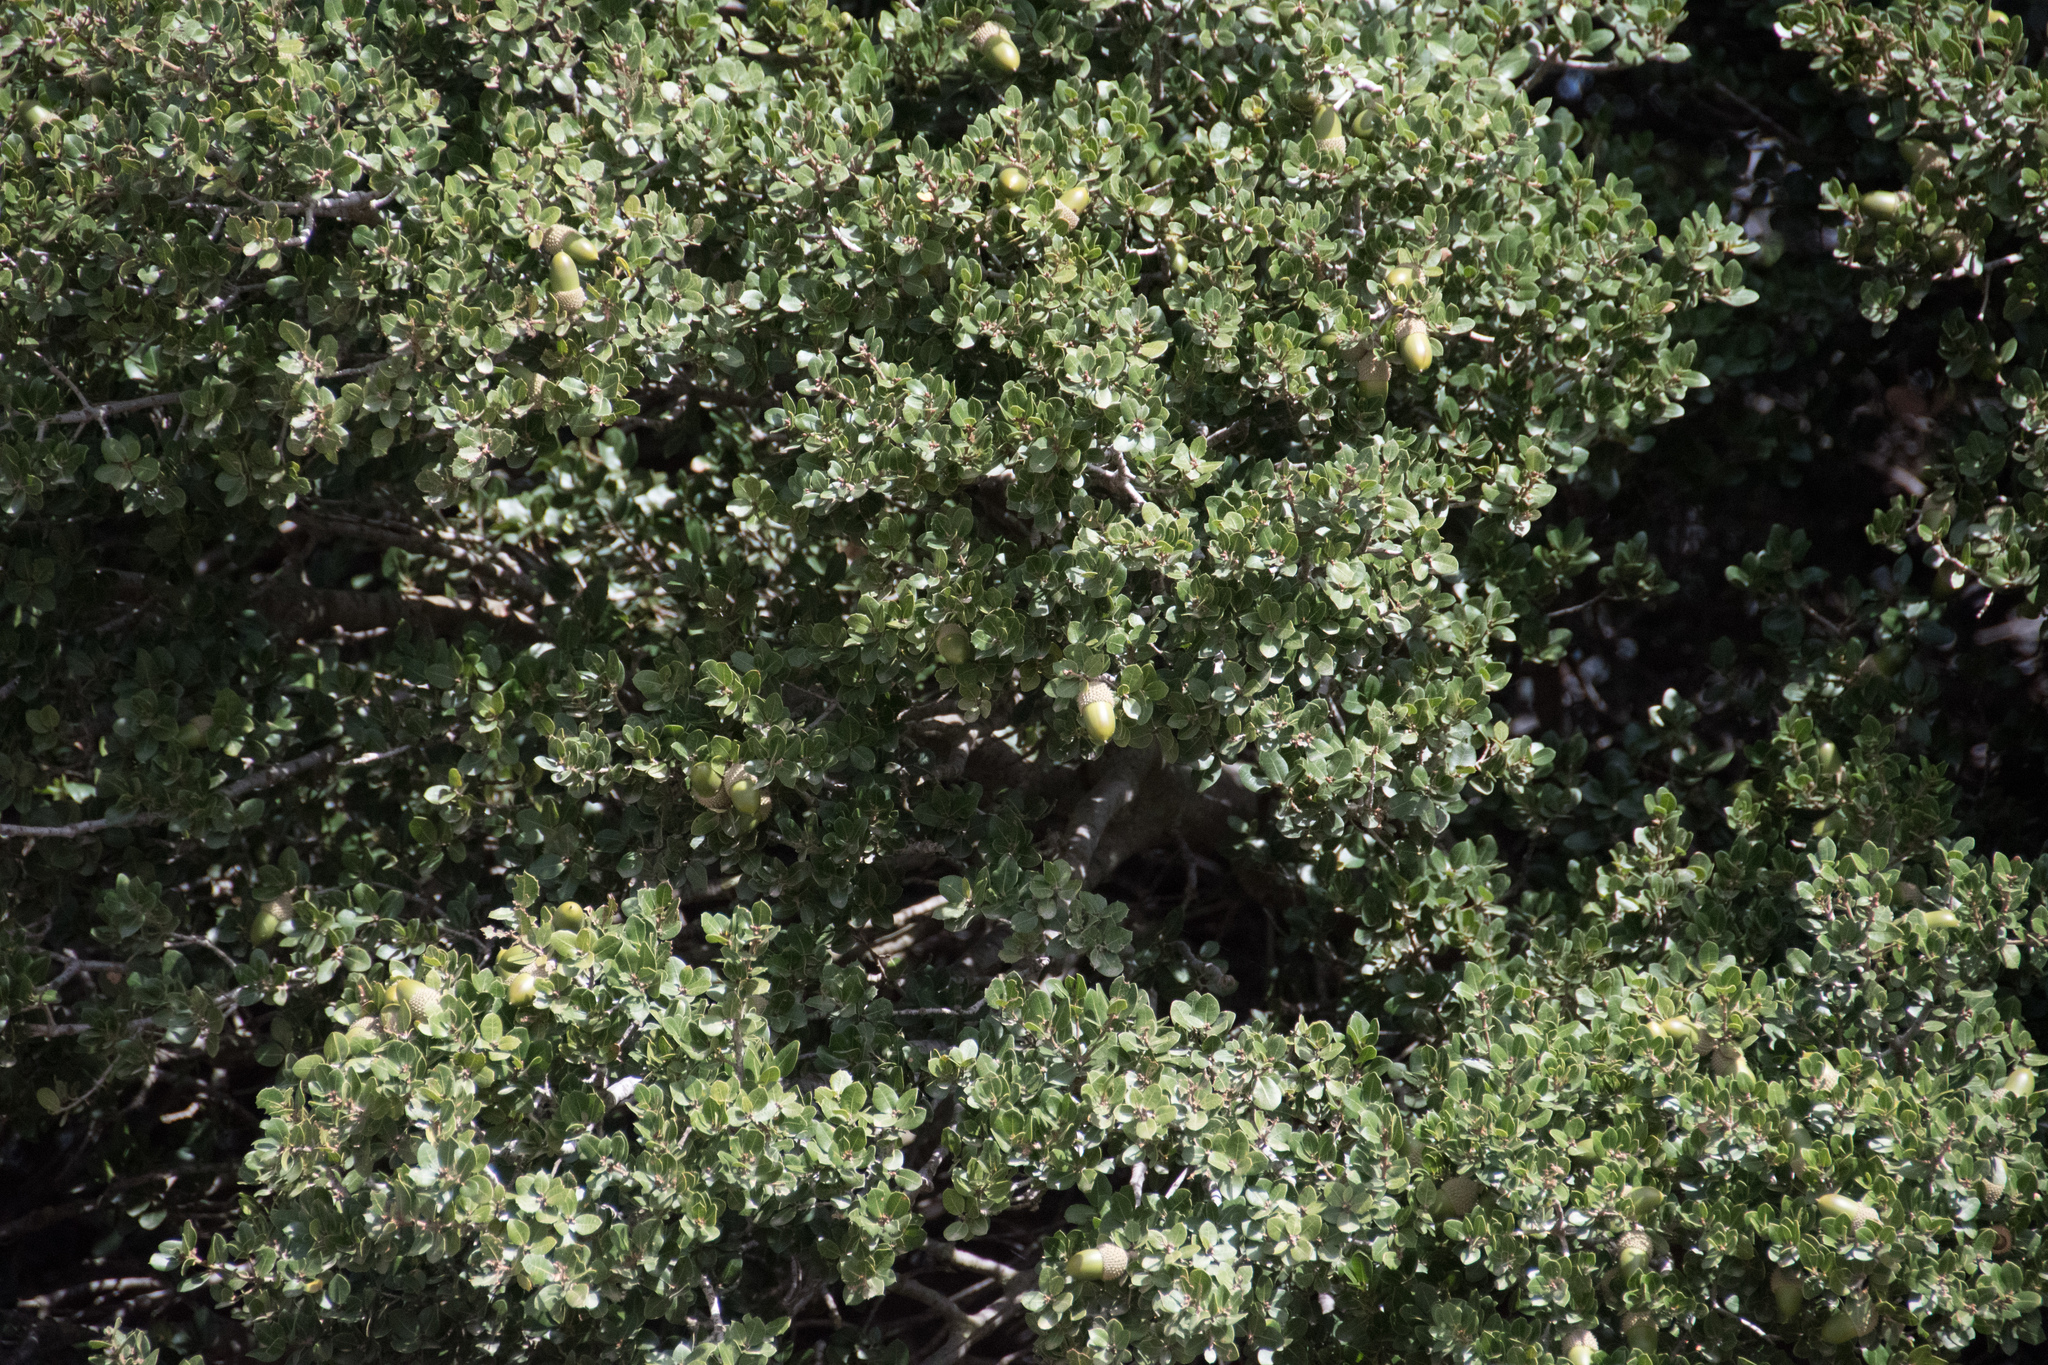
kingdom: Plantae
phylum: Tracheophyta
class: Magnoliopsida
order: Fagales
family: Fagaceae
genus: Quercus
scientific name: Quercus coccifera
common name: Kermes oak
